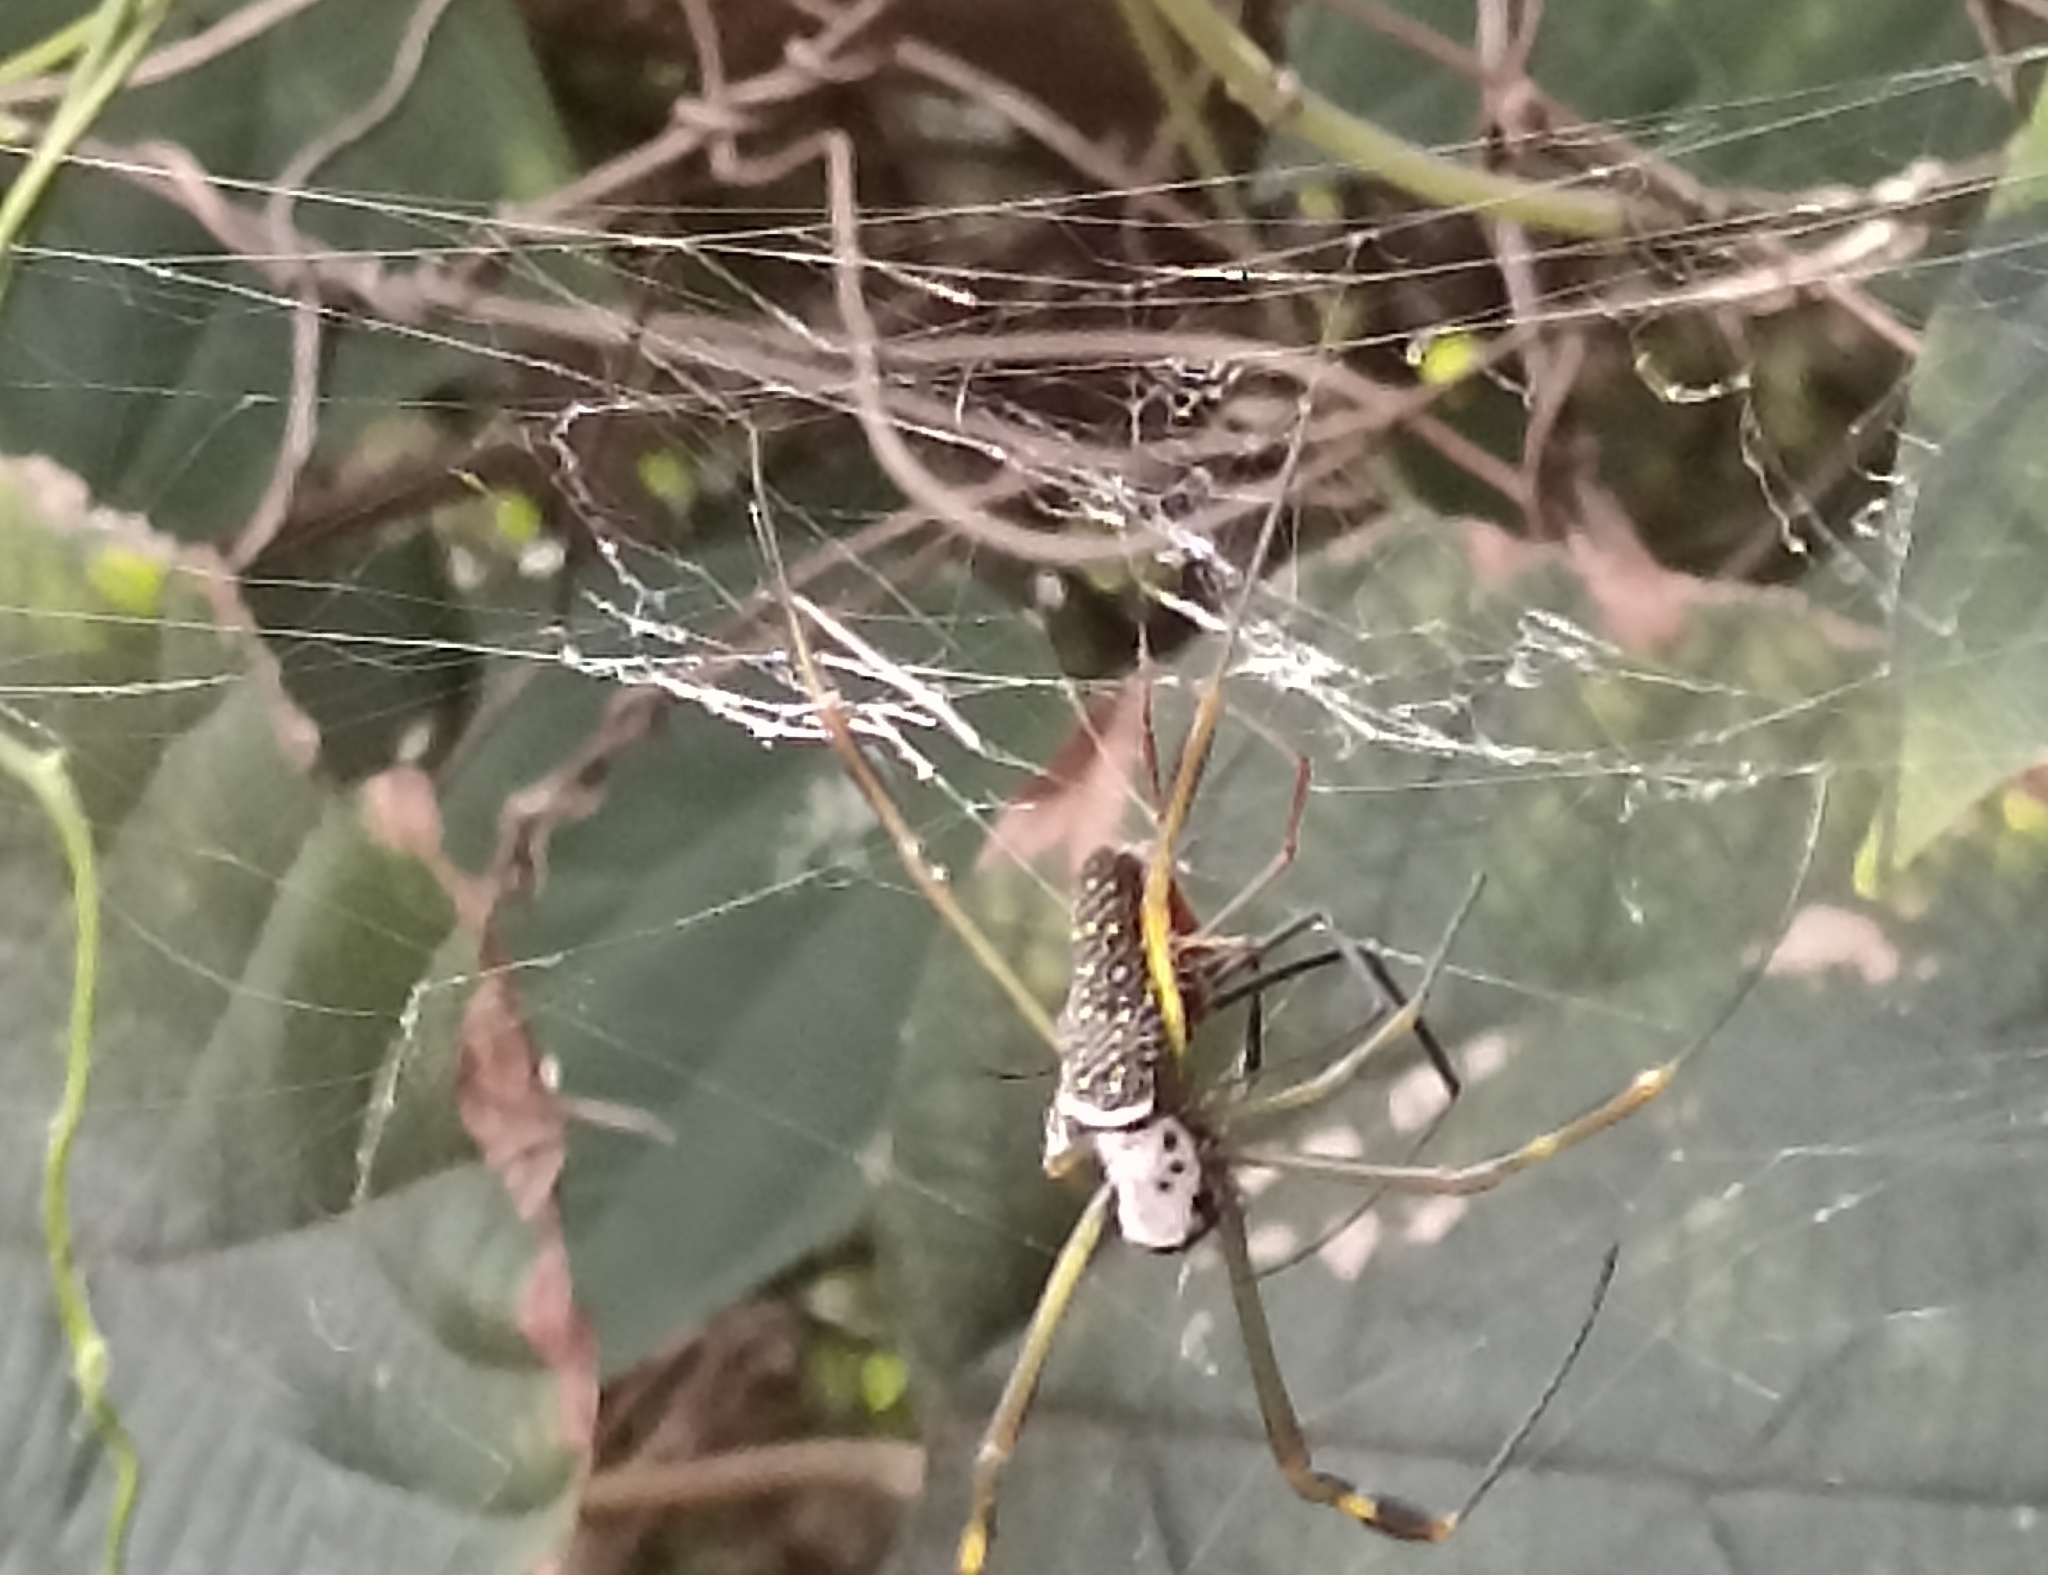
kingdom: Animalia
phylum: Arthropoda
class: Arachnida
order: Araneae
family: Araneidae
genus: Trichonephila
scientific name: Trichonephila clavipes
